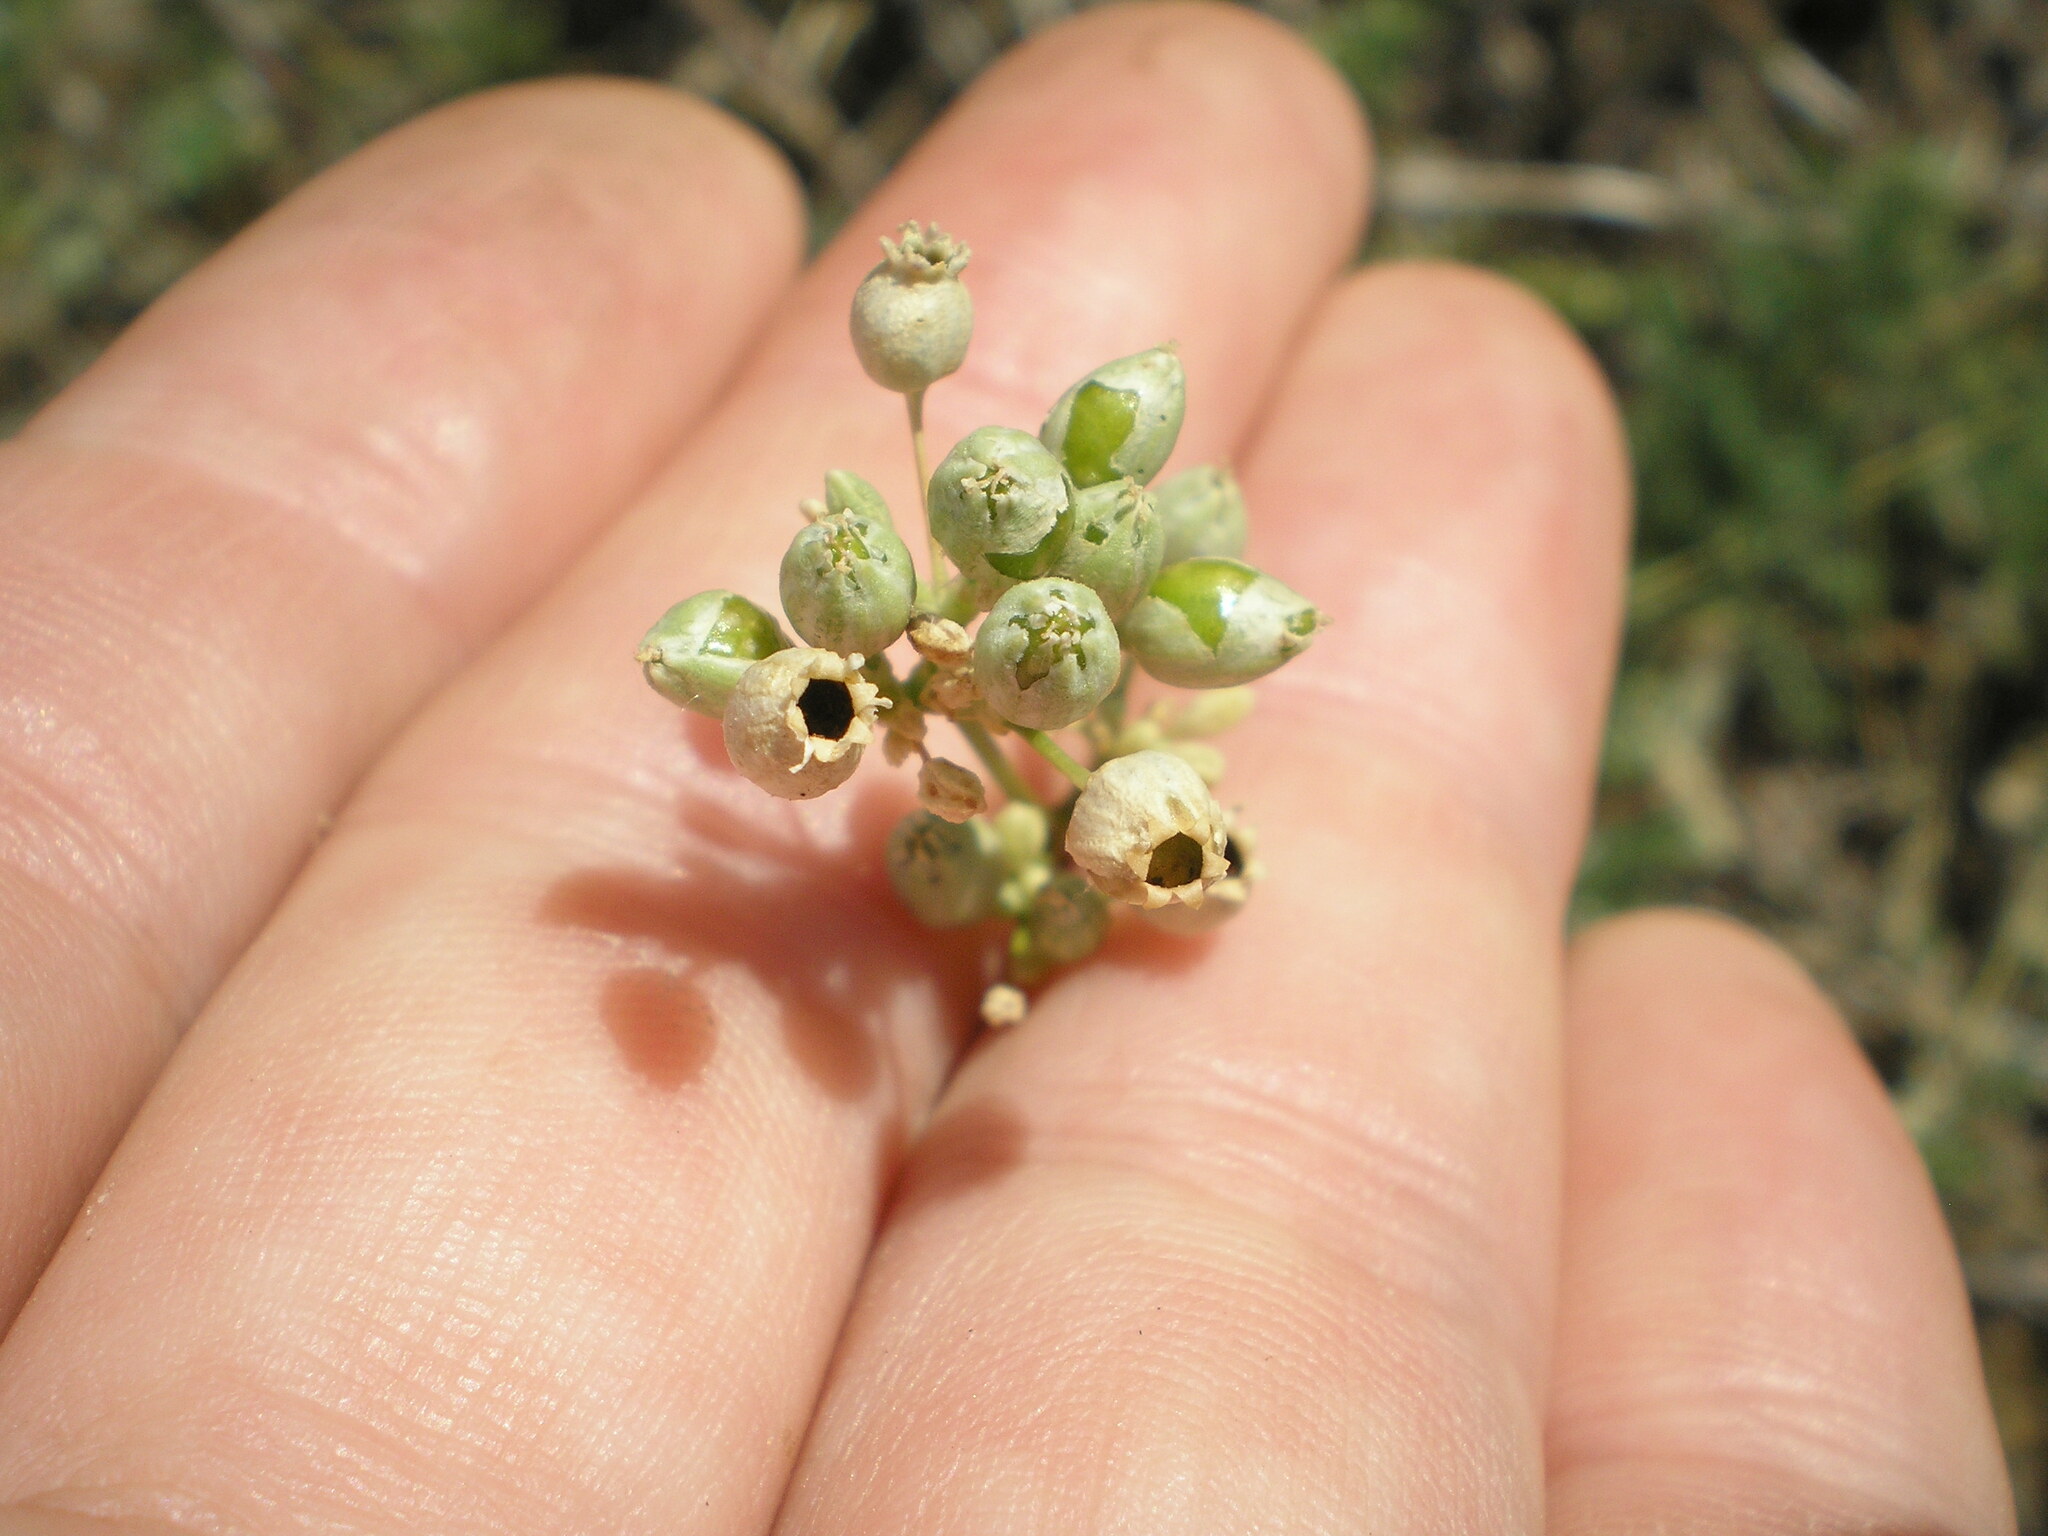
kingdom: Plantae
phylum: Tracheophyta
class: Magnoliopsida
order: Caryophyllales
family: Caryophyllaceae
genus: Silene
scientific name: Silene wolgensis
